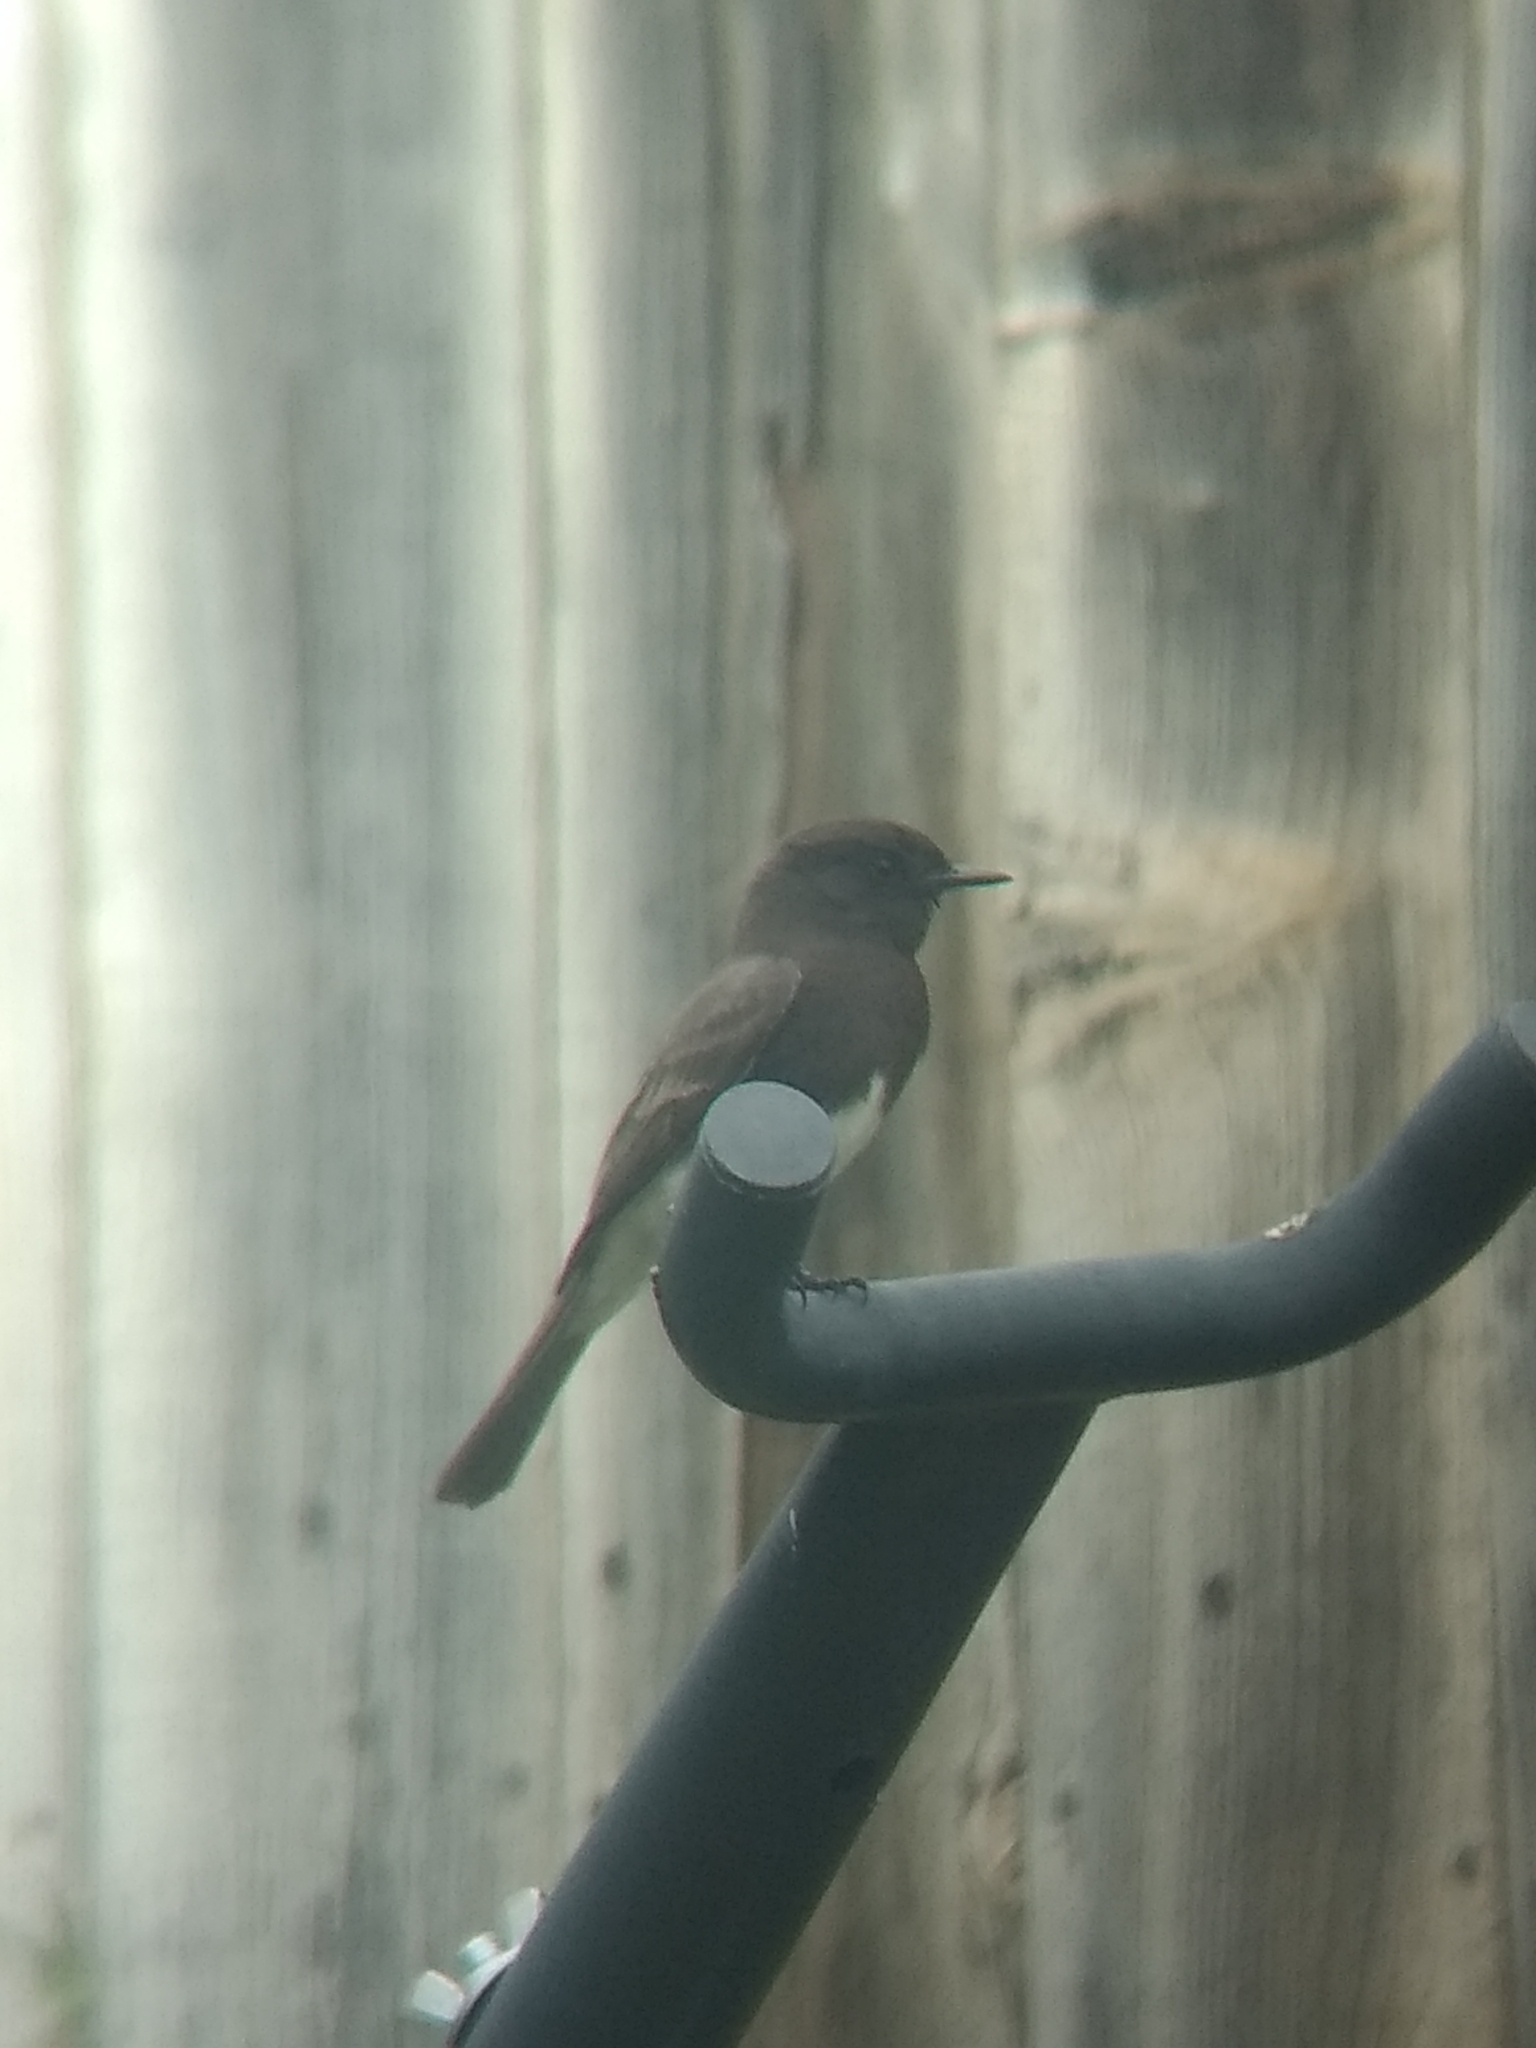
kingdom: Animalia
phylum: Chordata
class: Aves
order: Passeriformes
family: Tyrannidae
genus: Sayornis
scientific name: Sayornis nigricans
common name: Black phoebe
